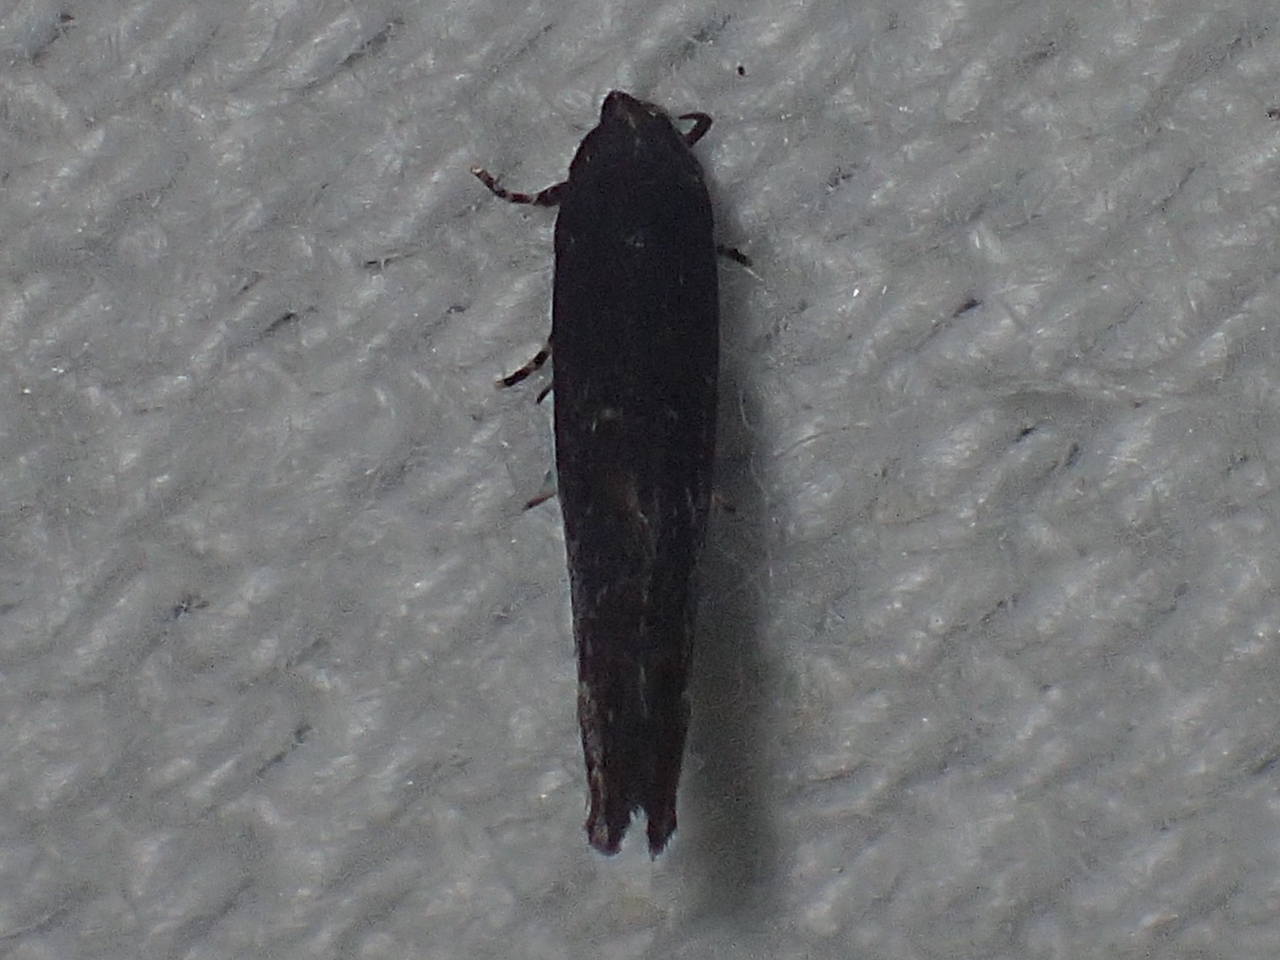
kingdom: Animalia
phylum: Arthropoda
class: Insecta
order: Lepidoptera
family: Cosmopterigidae
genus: Ithome
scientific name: Ithome erransella
